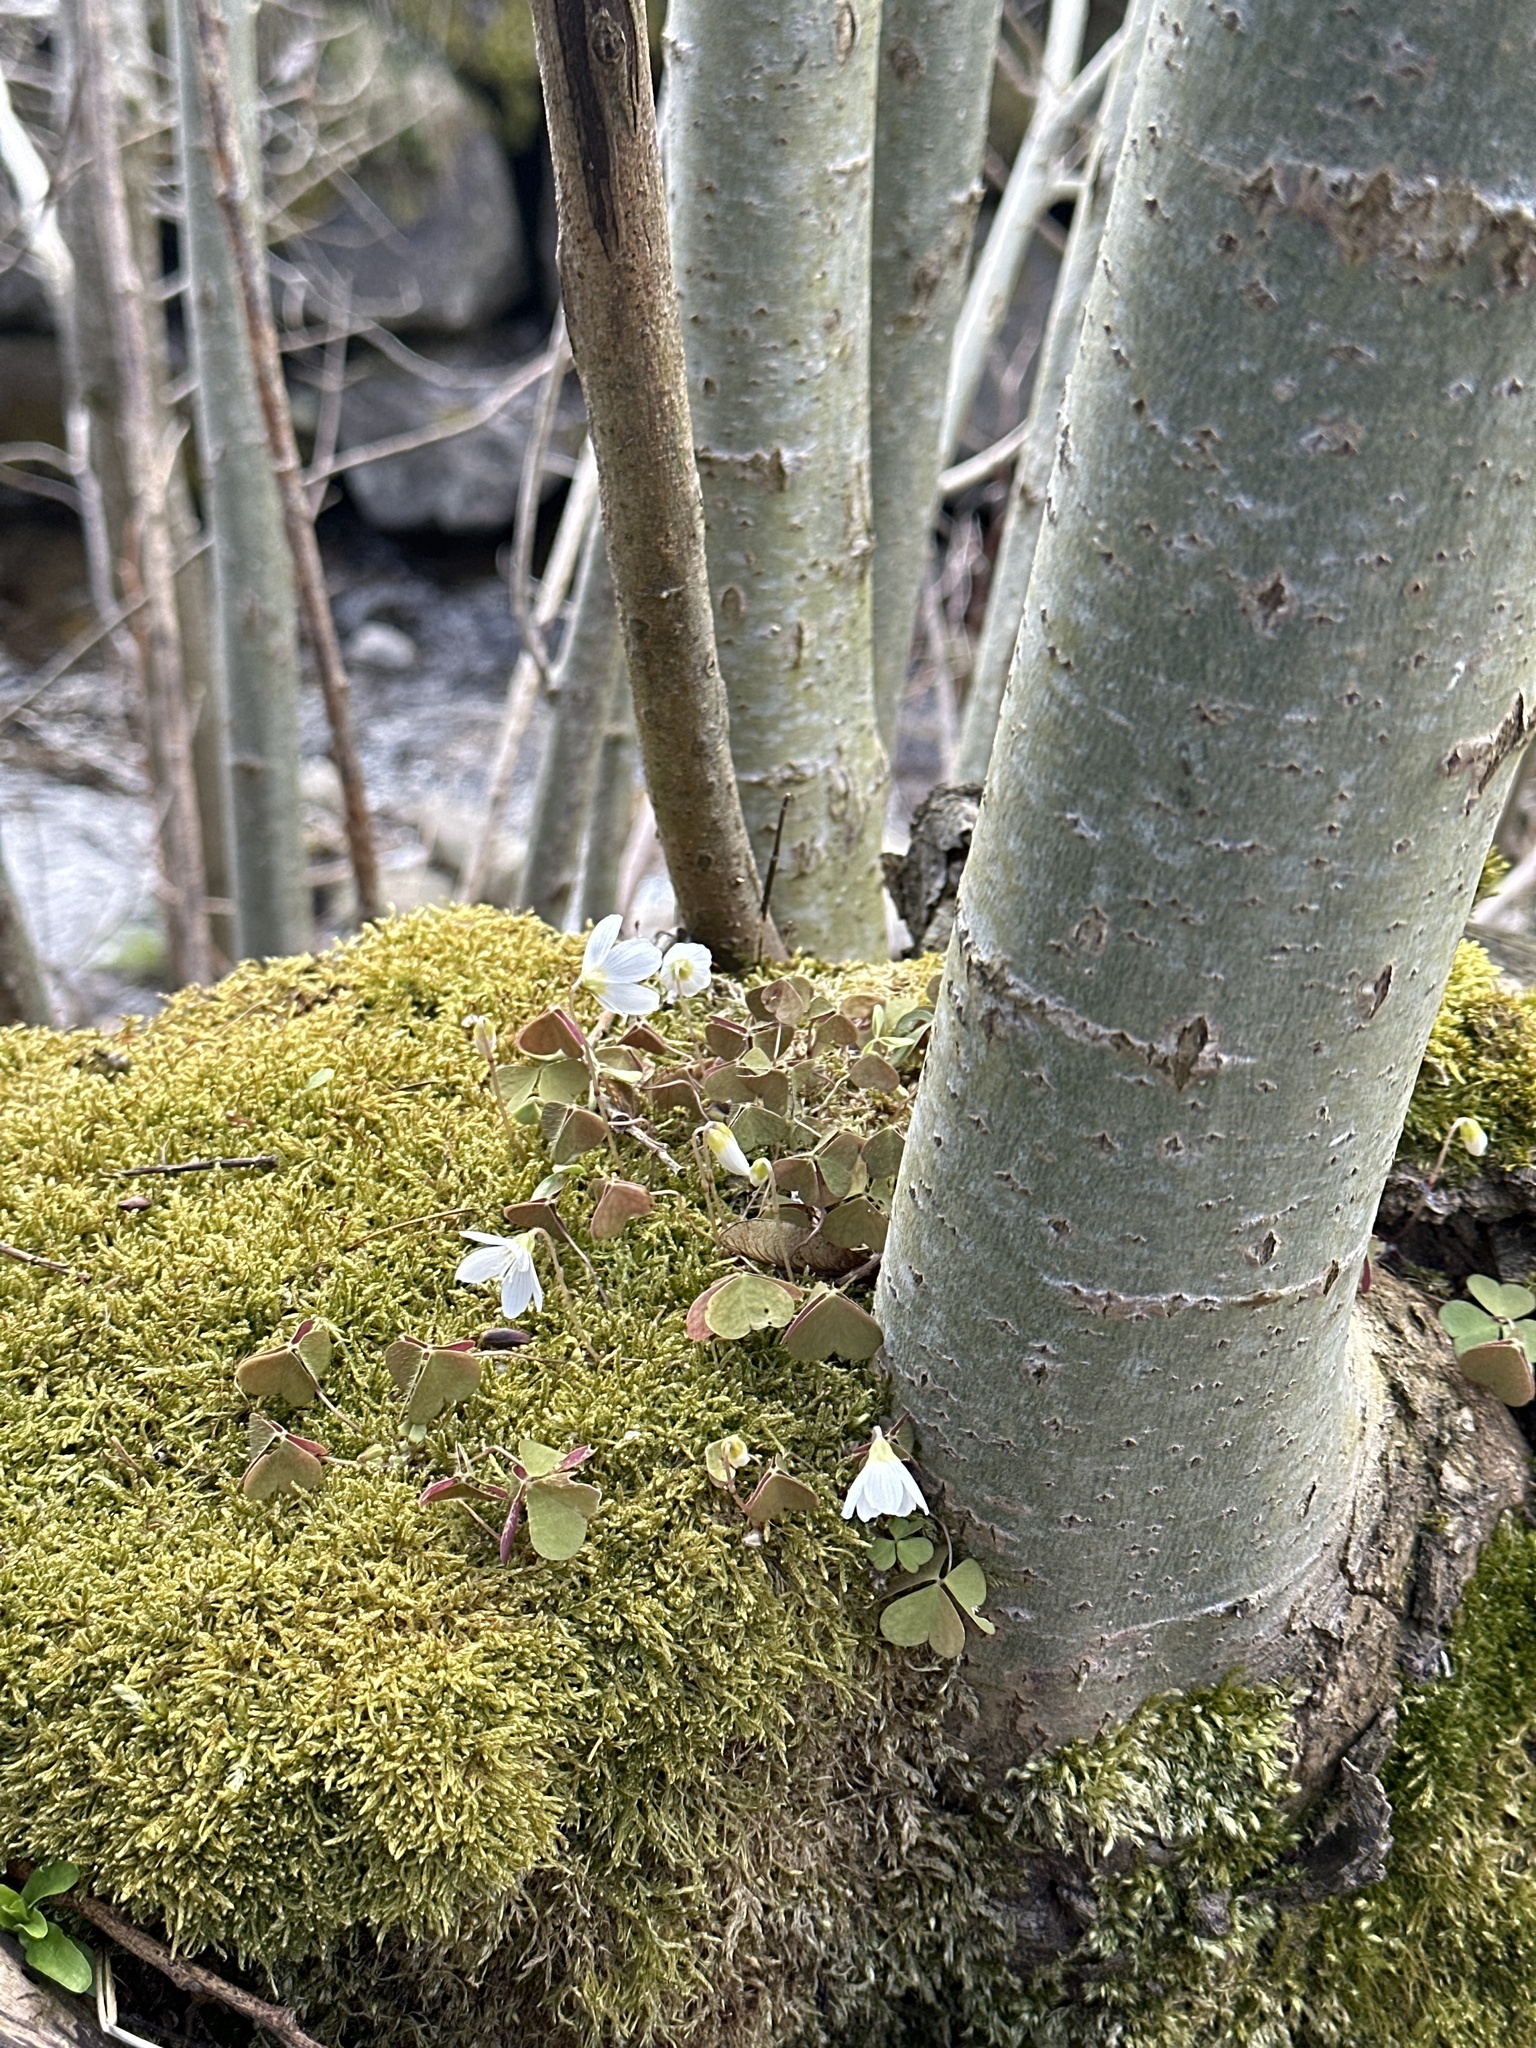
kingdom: Plantae
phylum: Tracheophyta
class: Magnoliopsida
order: Oxalidales
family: Oxalidaceae
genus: Oxalis
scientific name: Oxalis acetosella
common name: Wood-sorrel
